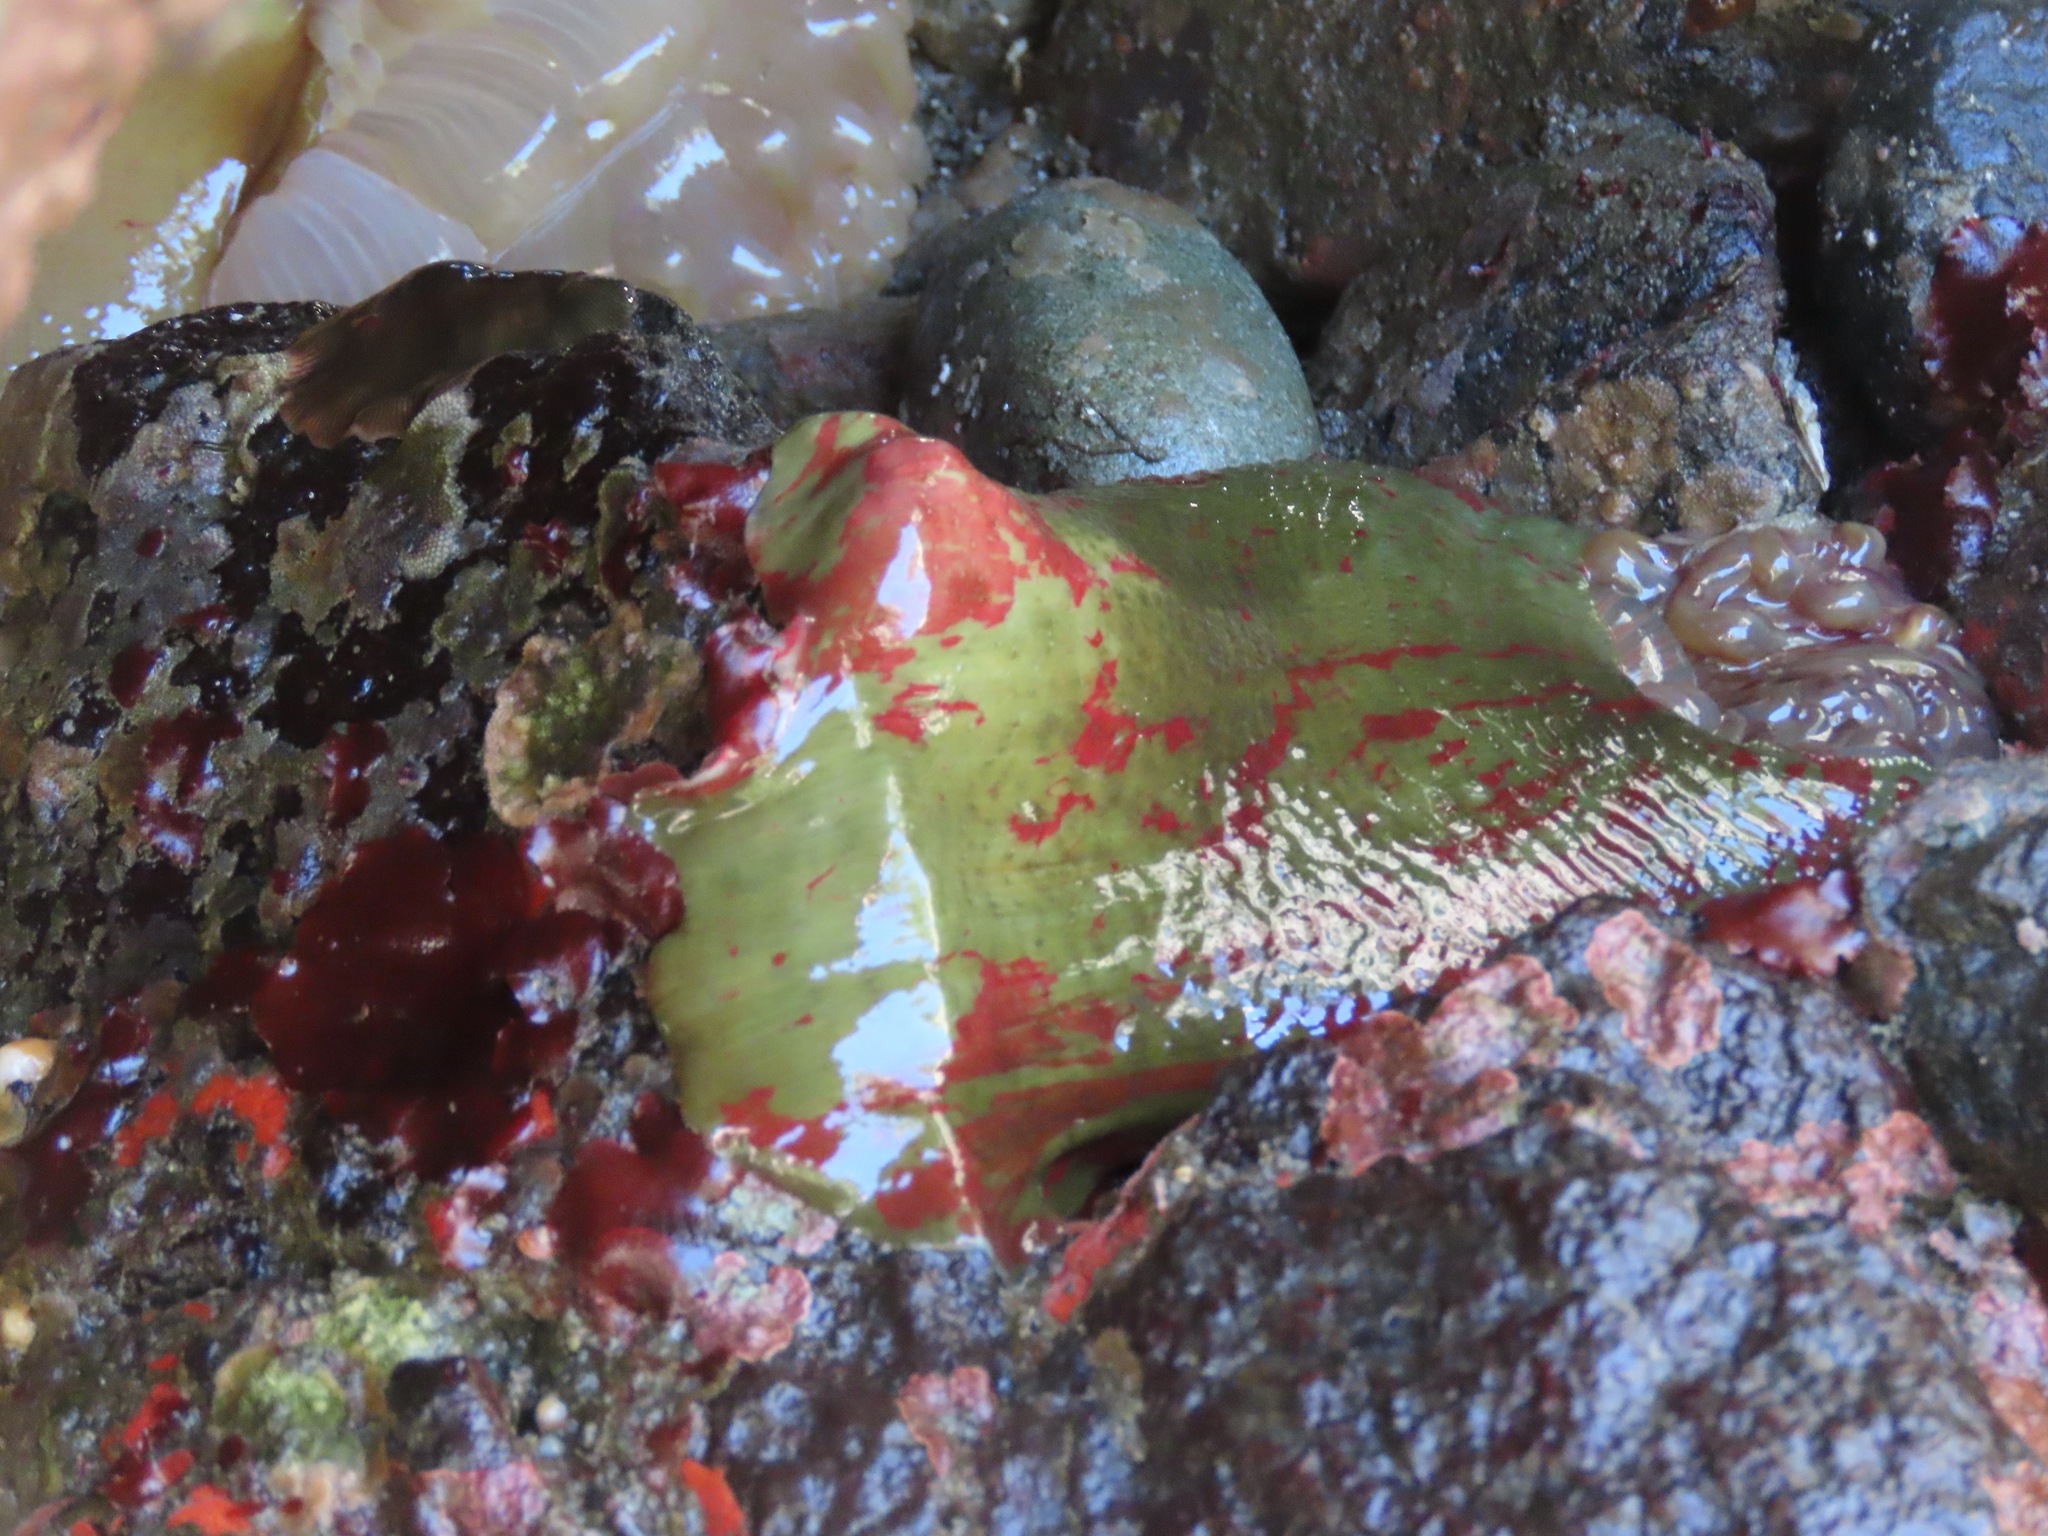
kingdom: Animalia
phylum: Cnidaria
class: Anthozoa
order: Actiniaria
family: Actiniidae
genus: Urticina
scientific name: Urticina grebelnyi
